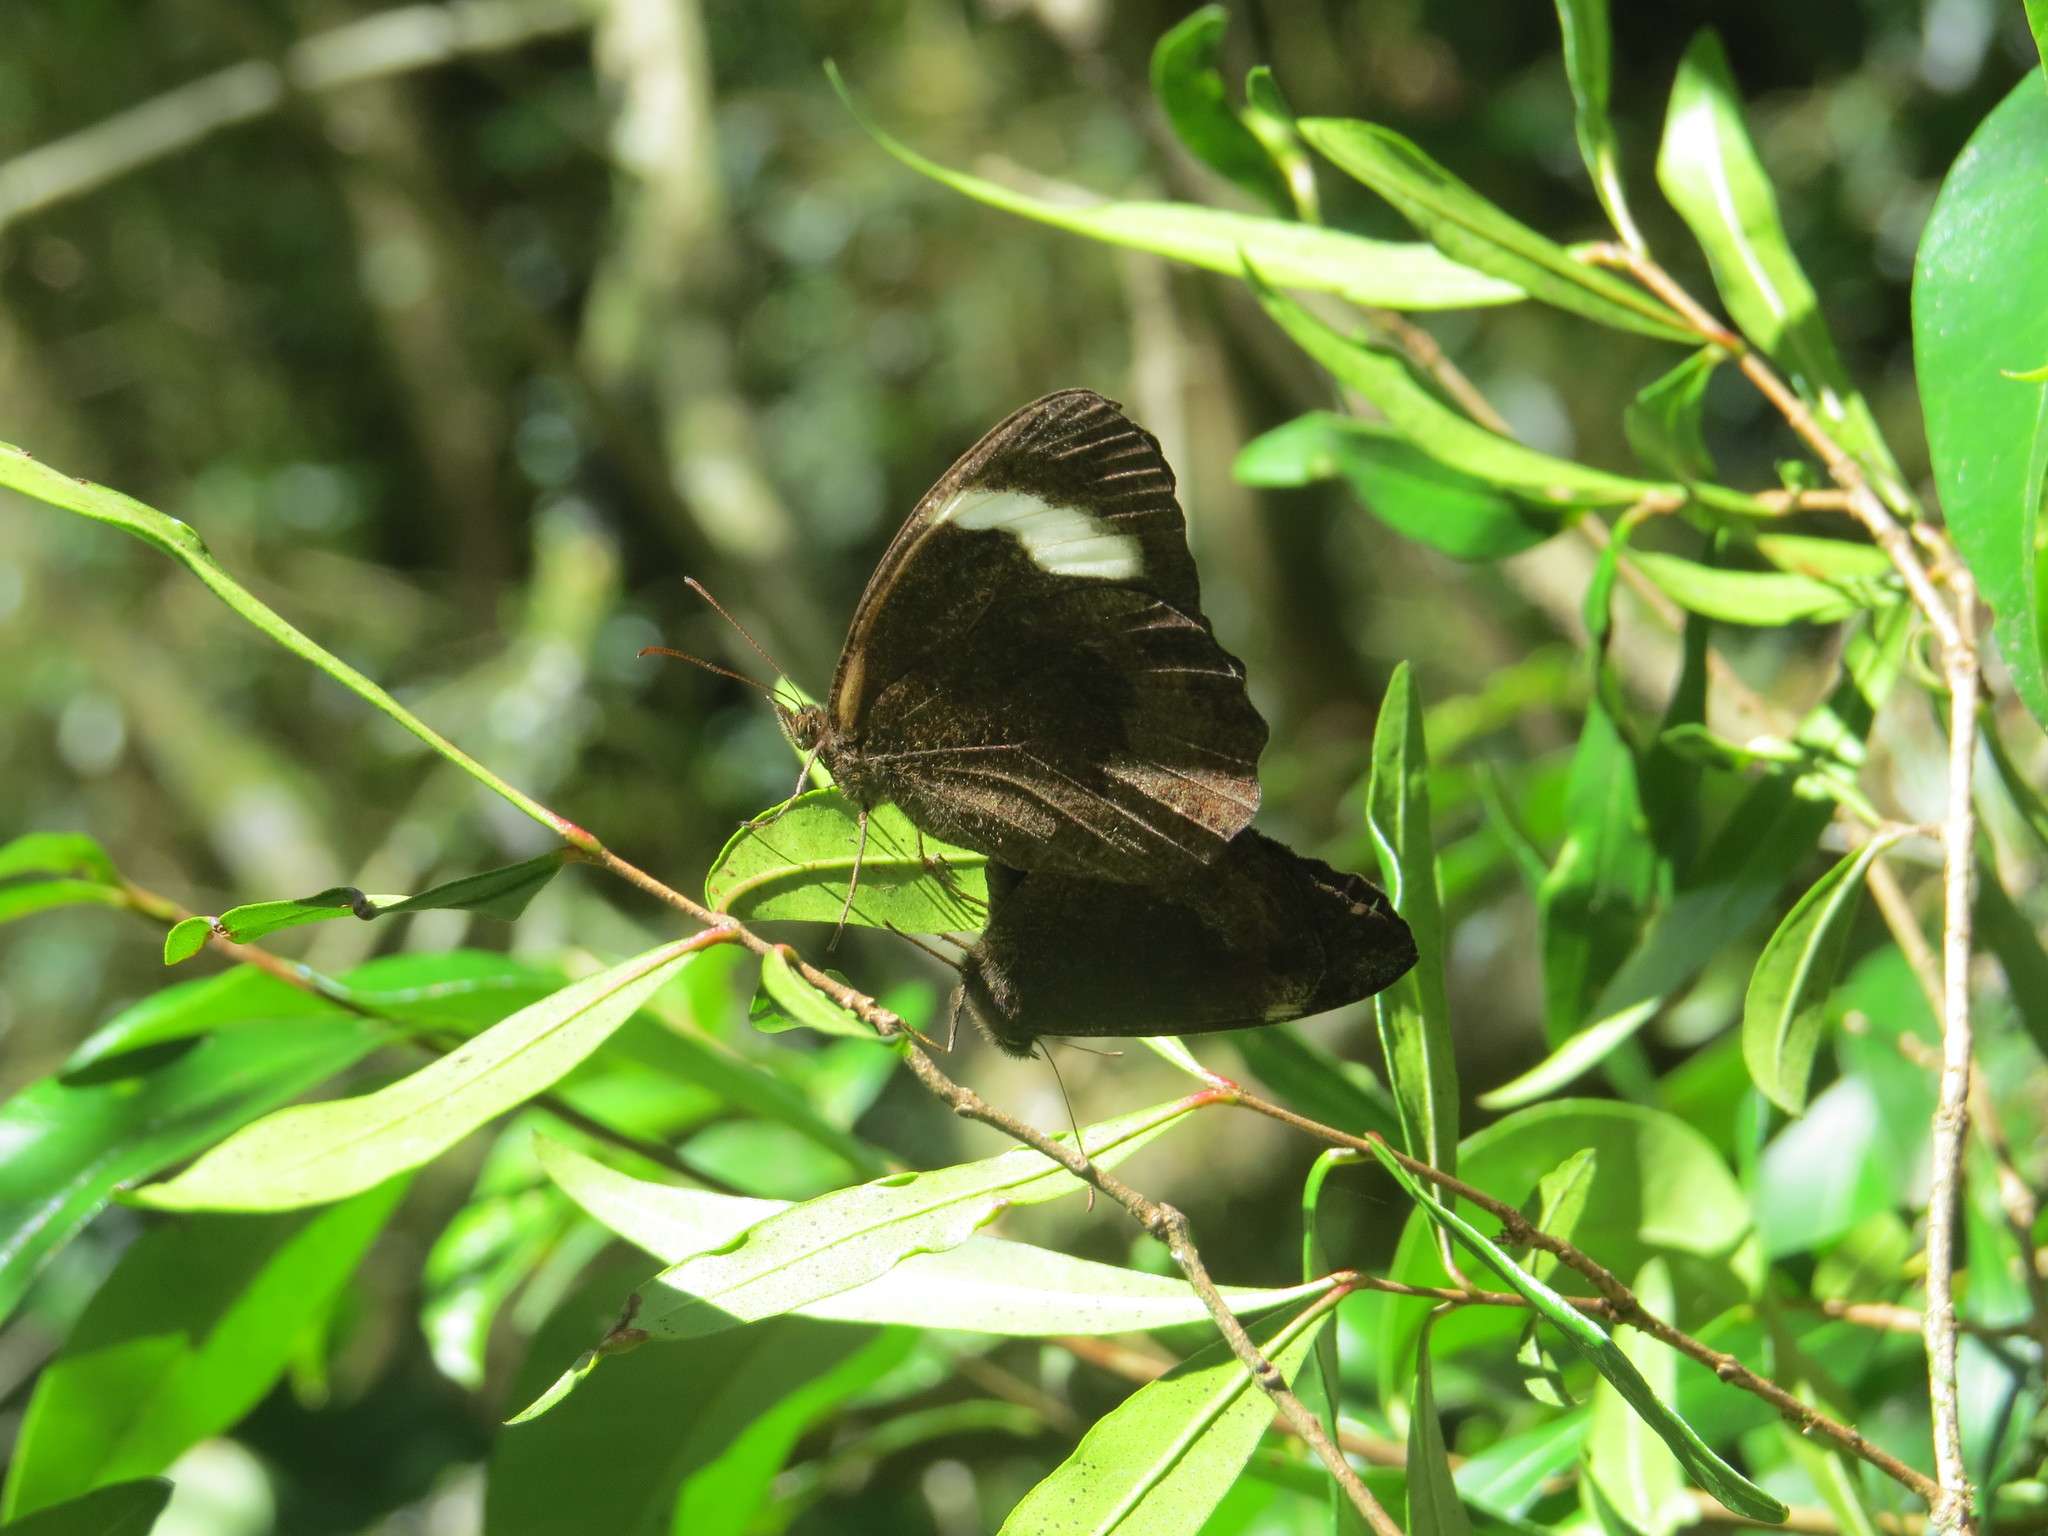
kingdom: Animalia
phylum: Arthropoda
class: Insecta
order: Lepidoptera
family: Nymphalidae
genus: Pedaliodes
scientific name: Pedaliodes porina
